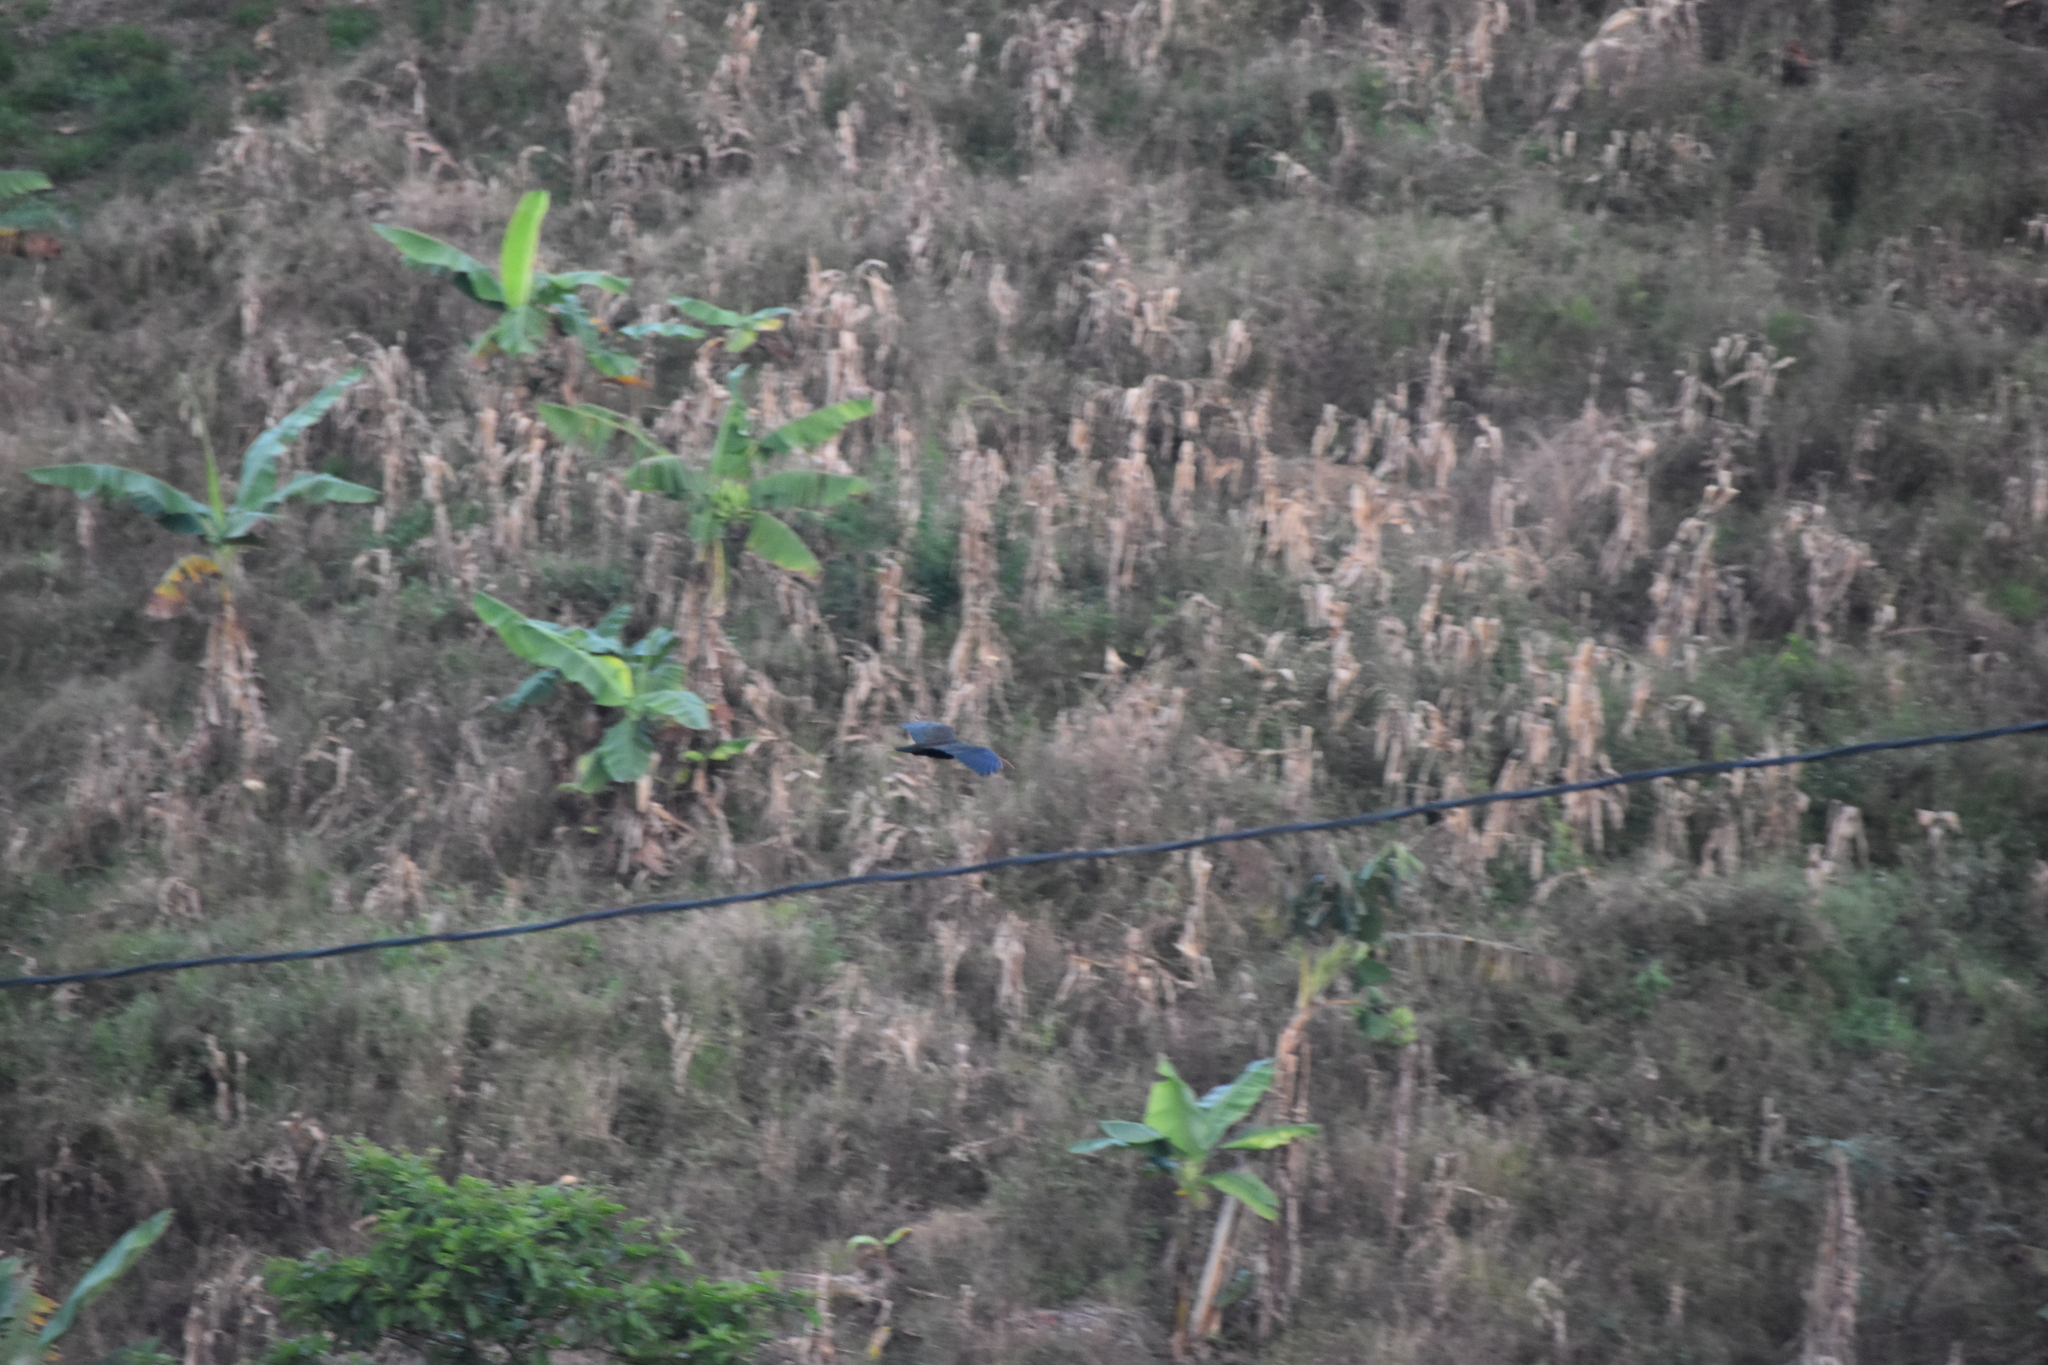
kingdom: Animalia
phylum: Chordata
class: Aves
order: Pelecaniformes
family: Threskiornithidae
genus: Phimosus
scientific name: Phimosus infuscatus
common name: Bare-faced ibis
